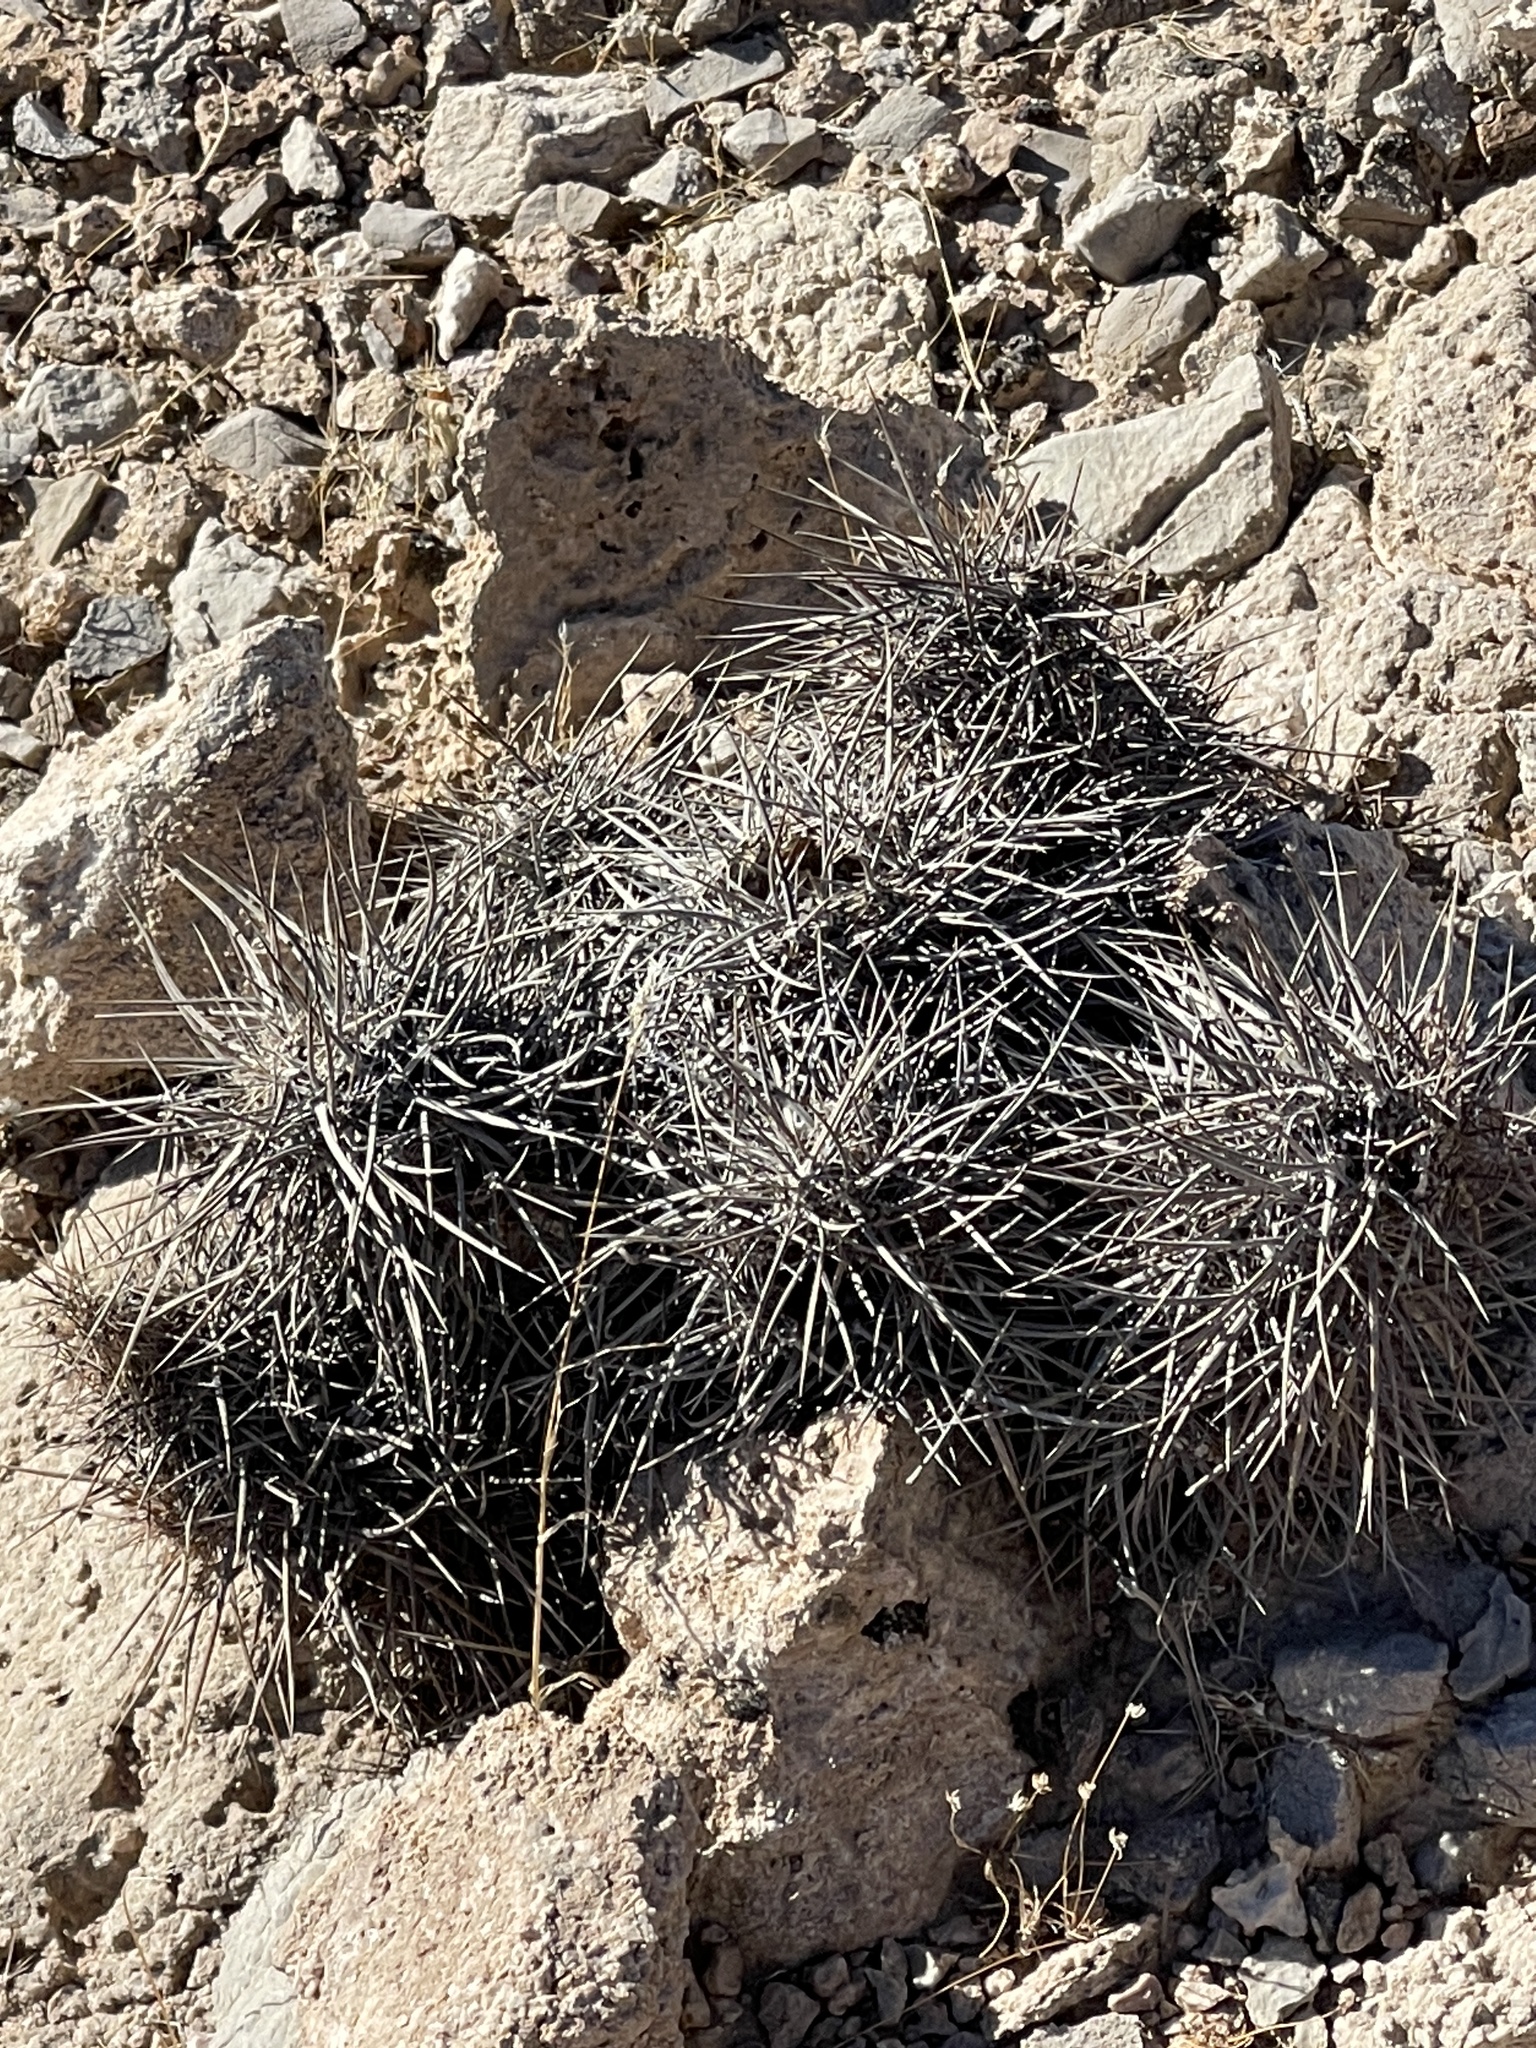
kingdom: Plantae
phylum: Tracheophyta
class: Magnoliopsida
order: Caryophyllales
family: Cactaceae
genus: Echinocereus
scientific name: Echinocereus engelmannii
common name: Engelmann's hedgehog cactus
